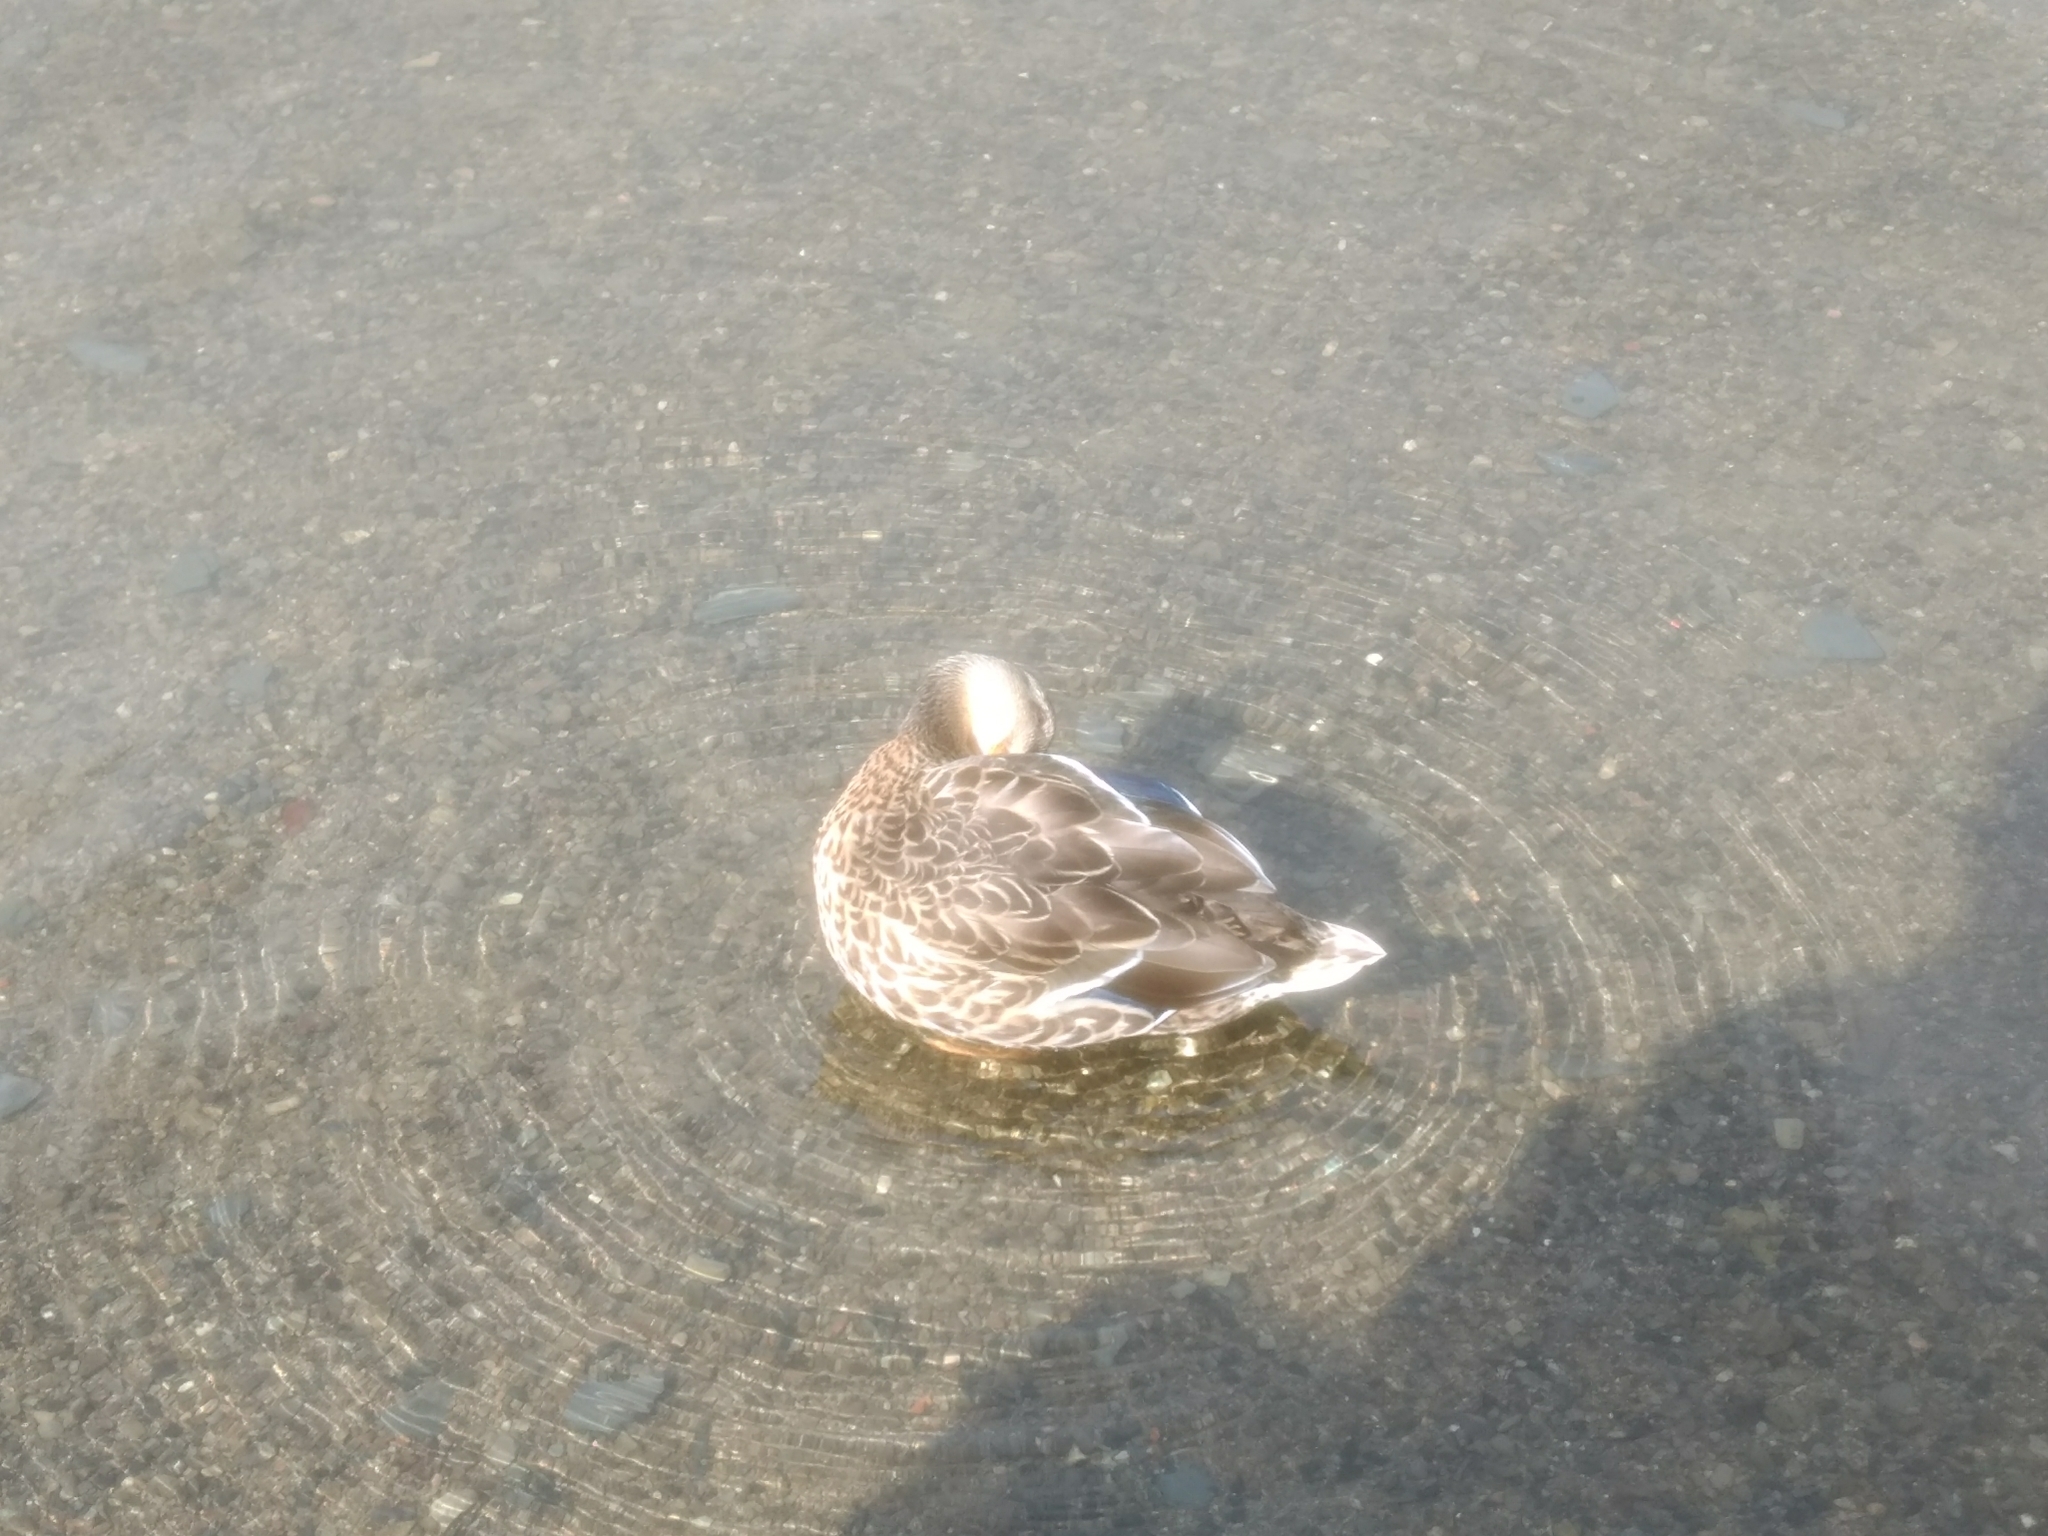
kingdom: Animalia
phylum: Chordata
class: Aves
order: Anseriformes
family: Anatidae
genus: Anas
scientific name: Anas platyrhynchos
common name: Mallard
